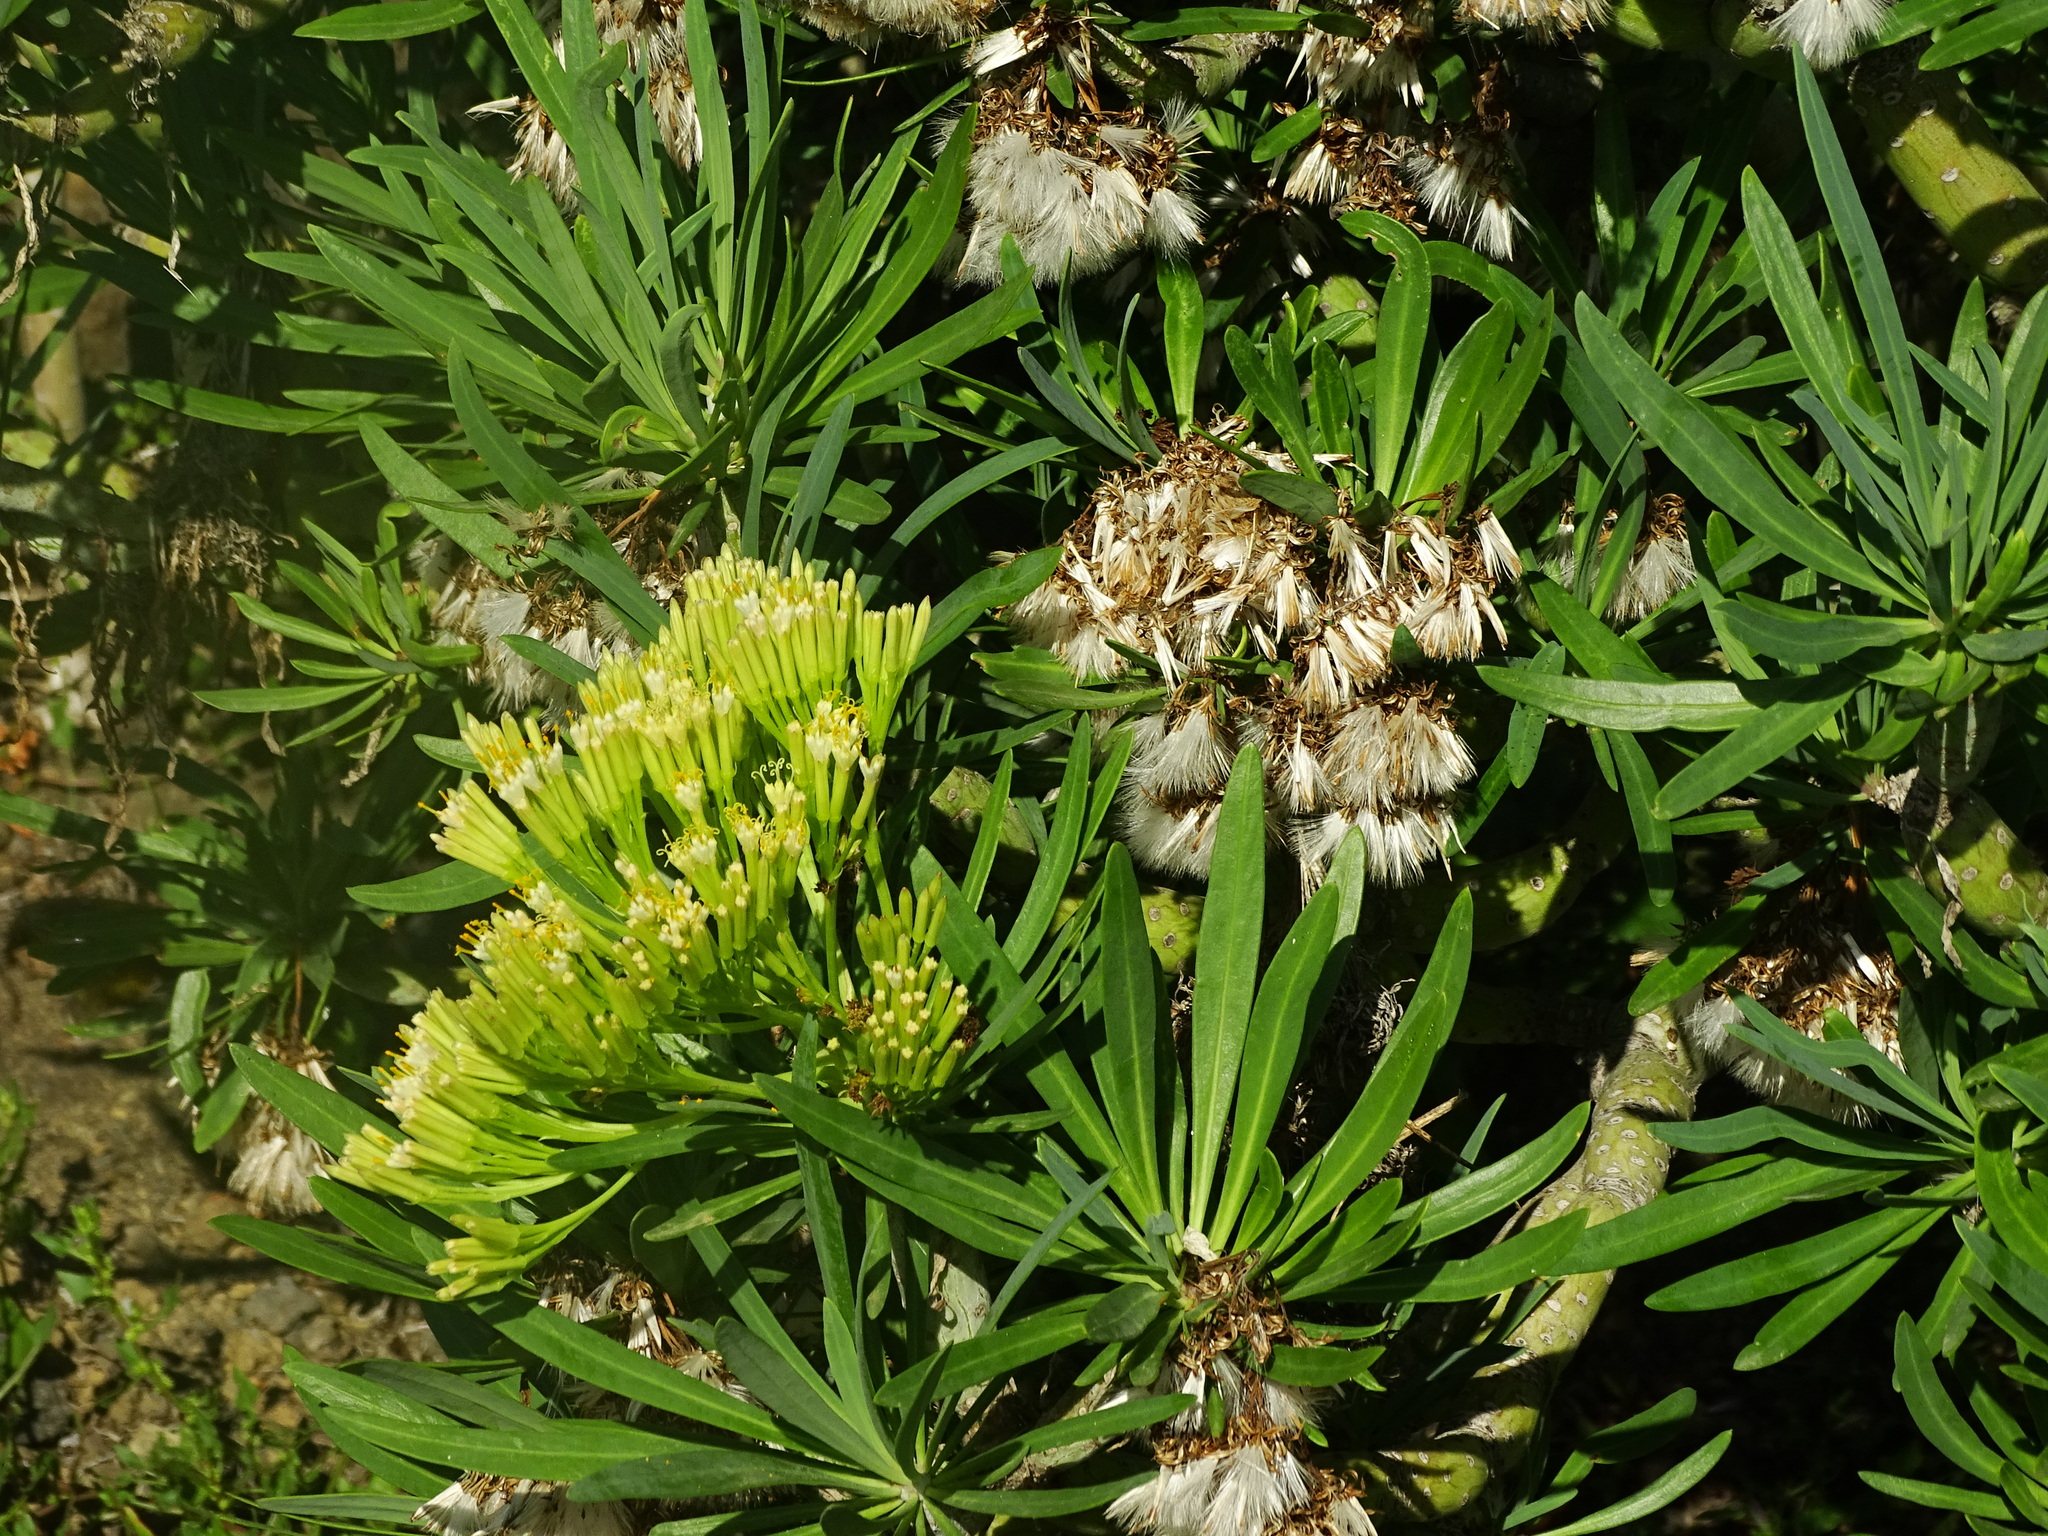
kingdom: Plantae
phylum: Tracheophyta
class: Magnoliopsida
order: Asterales
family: Asteraceae
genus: Kleinia
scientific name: Kleinia neriifolia
